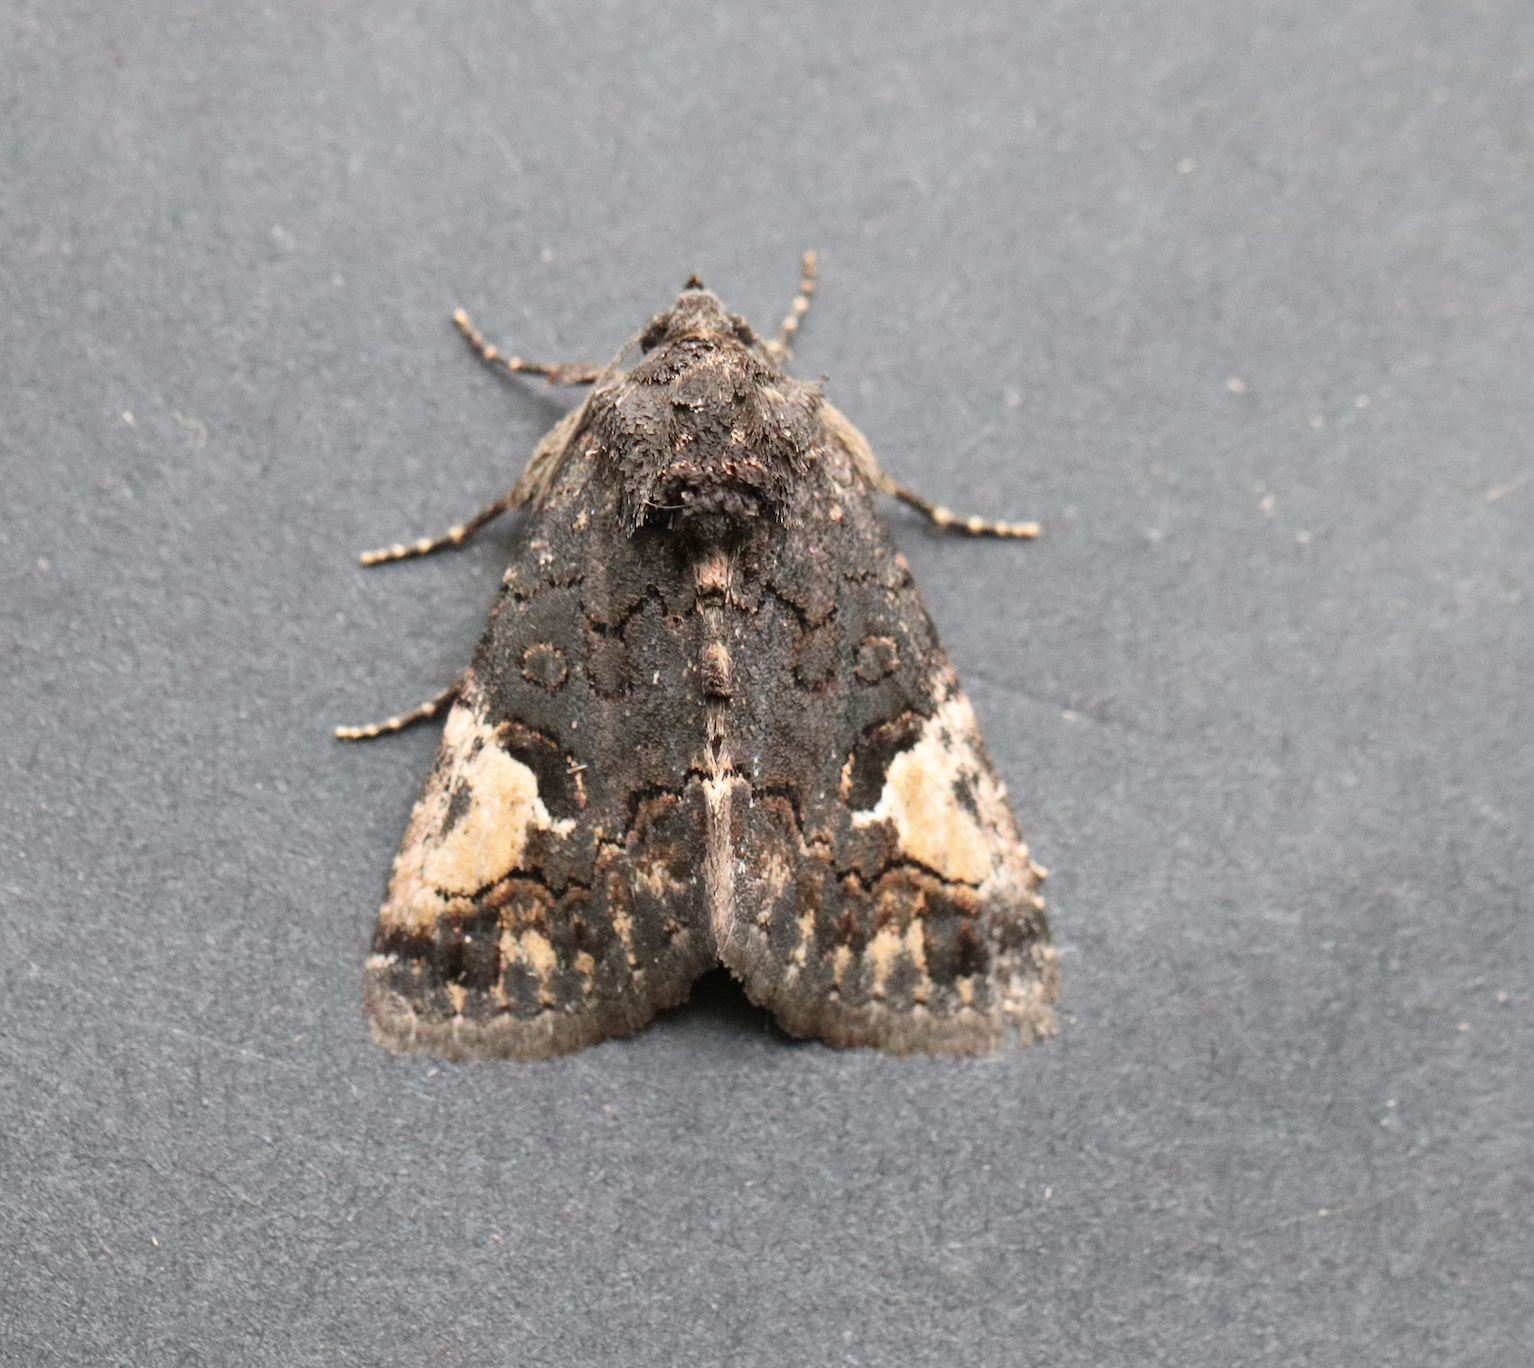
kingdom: Animalia
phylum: Arthropoda
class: Insecta
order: Lepidoptera
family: Noctuidae
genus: Aedia
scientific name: Aedia funesta
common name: The druid
